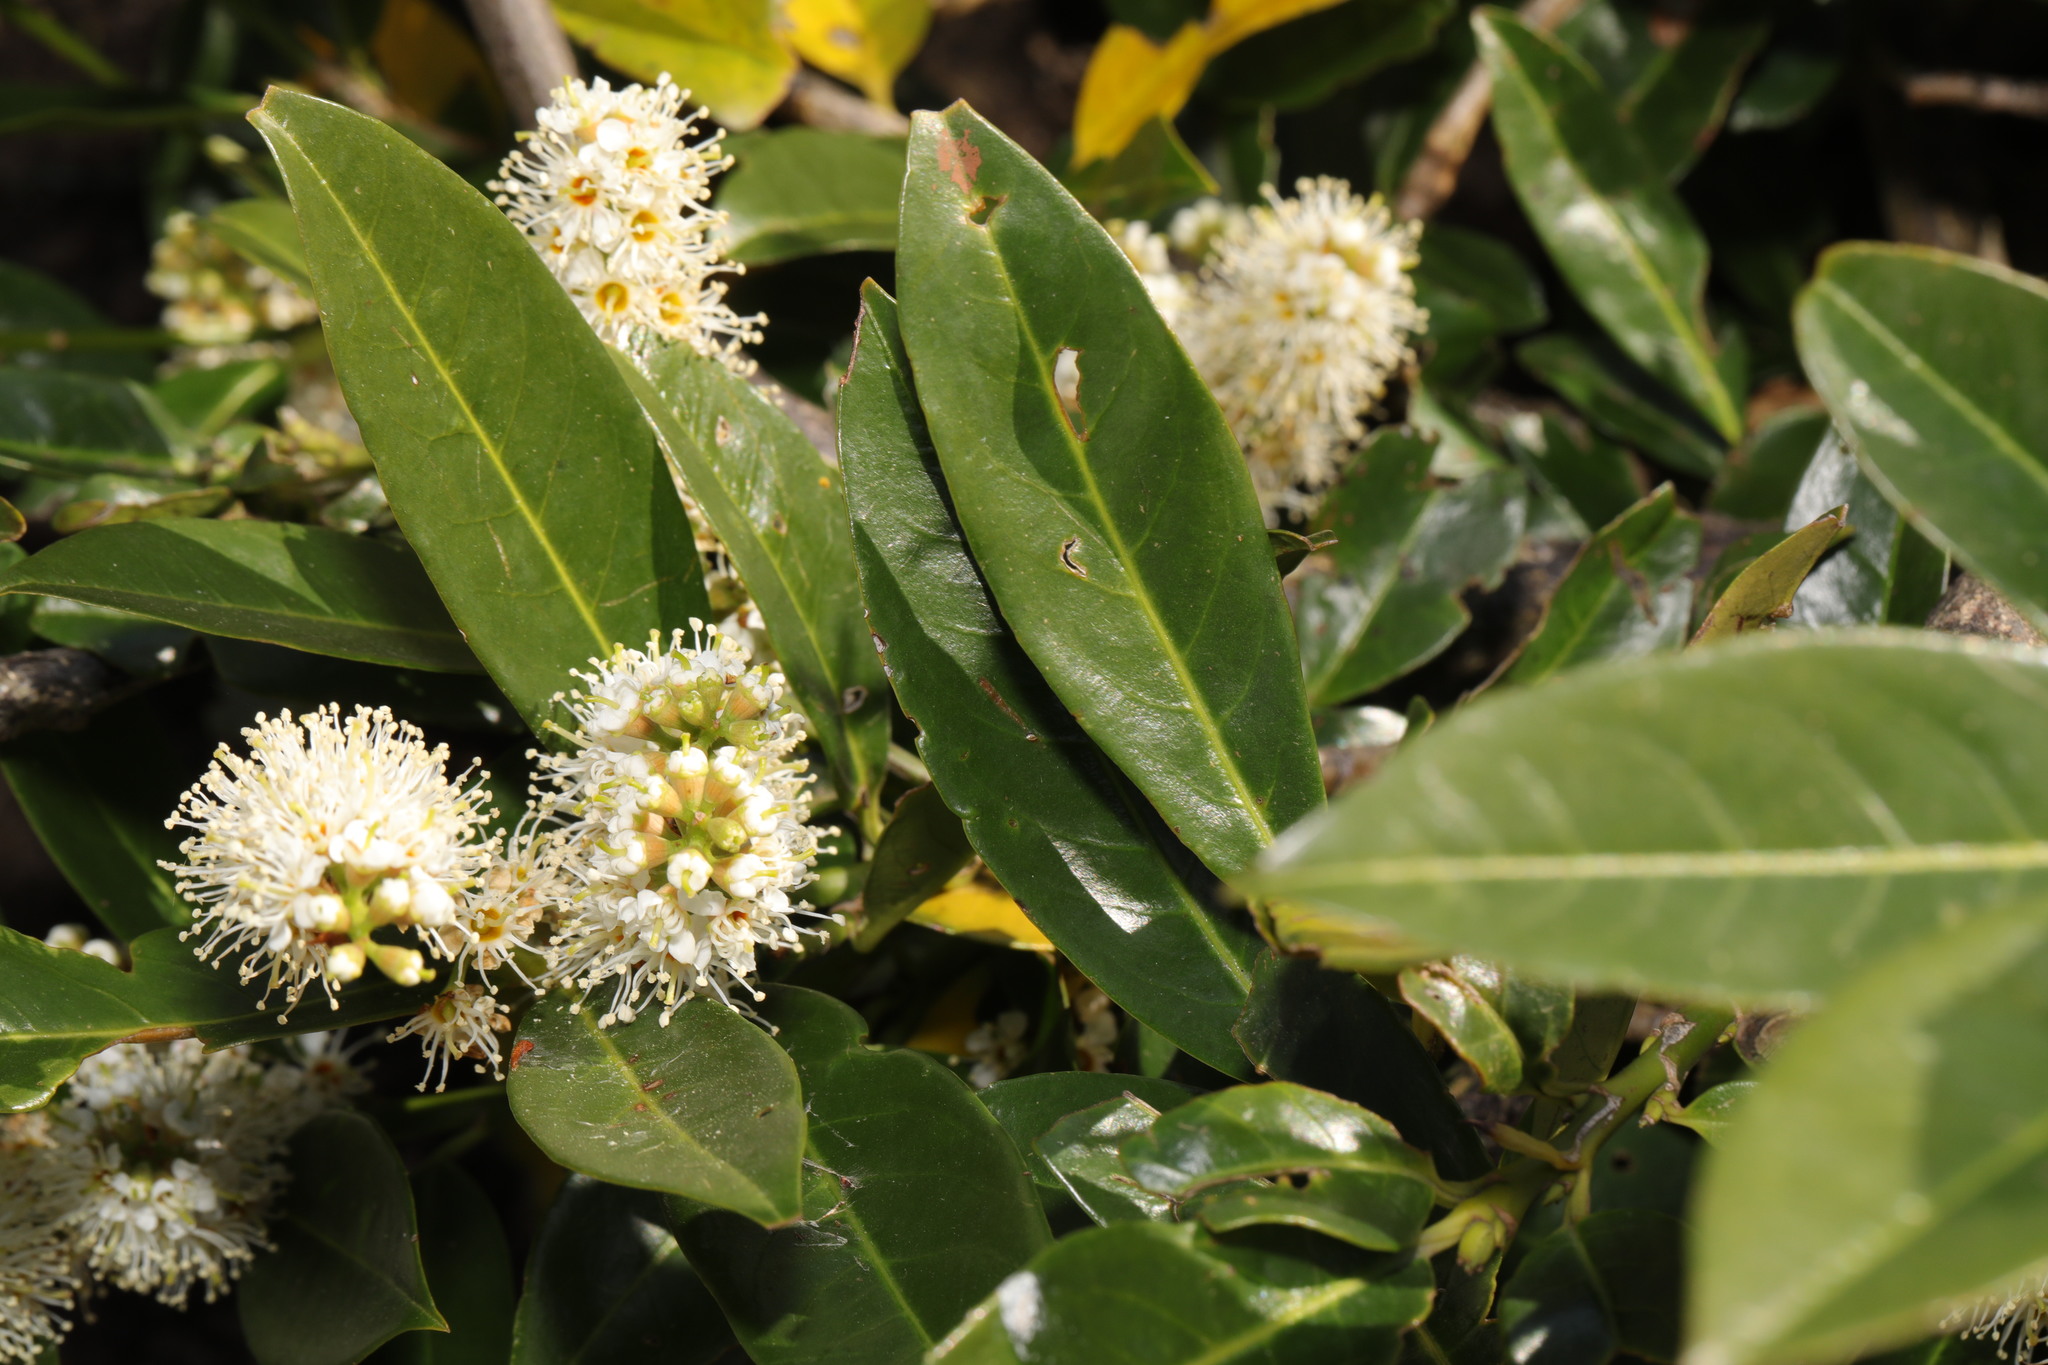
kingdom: Plantae
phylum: Tracheophyta
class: Magnoliopsida
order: Rosales
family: Rosaceae
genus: Prunus
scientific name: Prunus laurocerasus
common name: Cherry laurel
